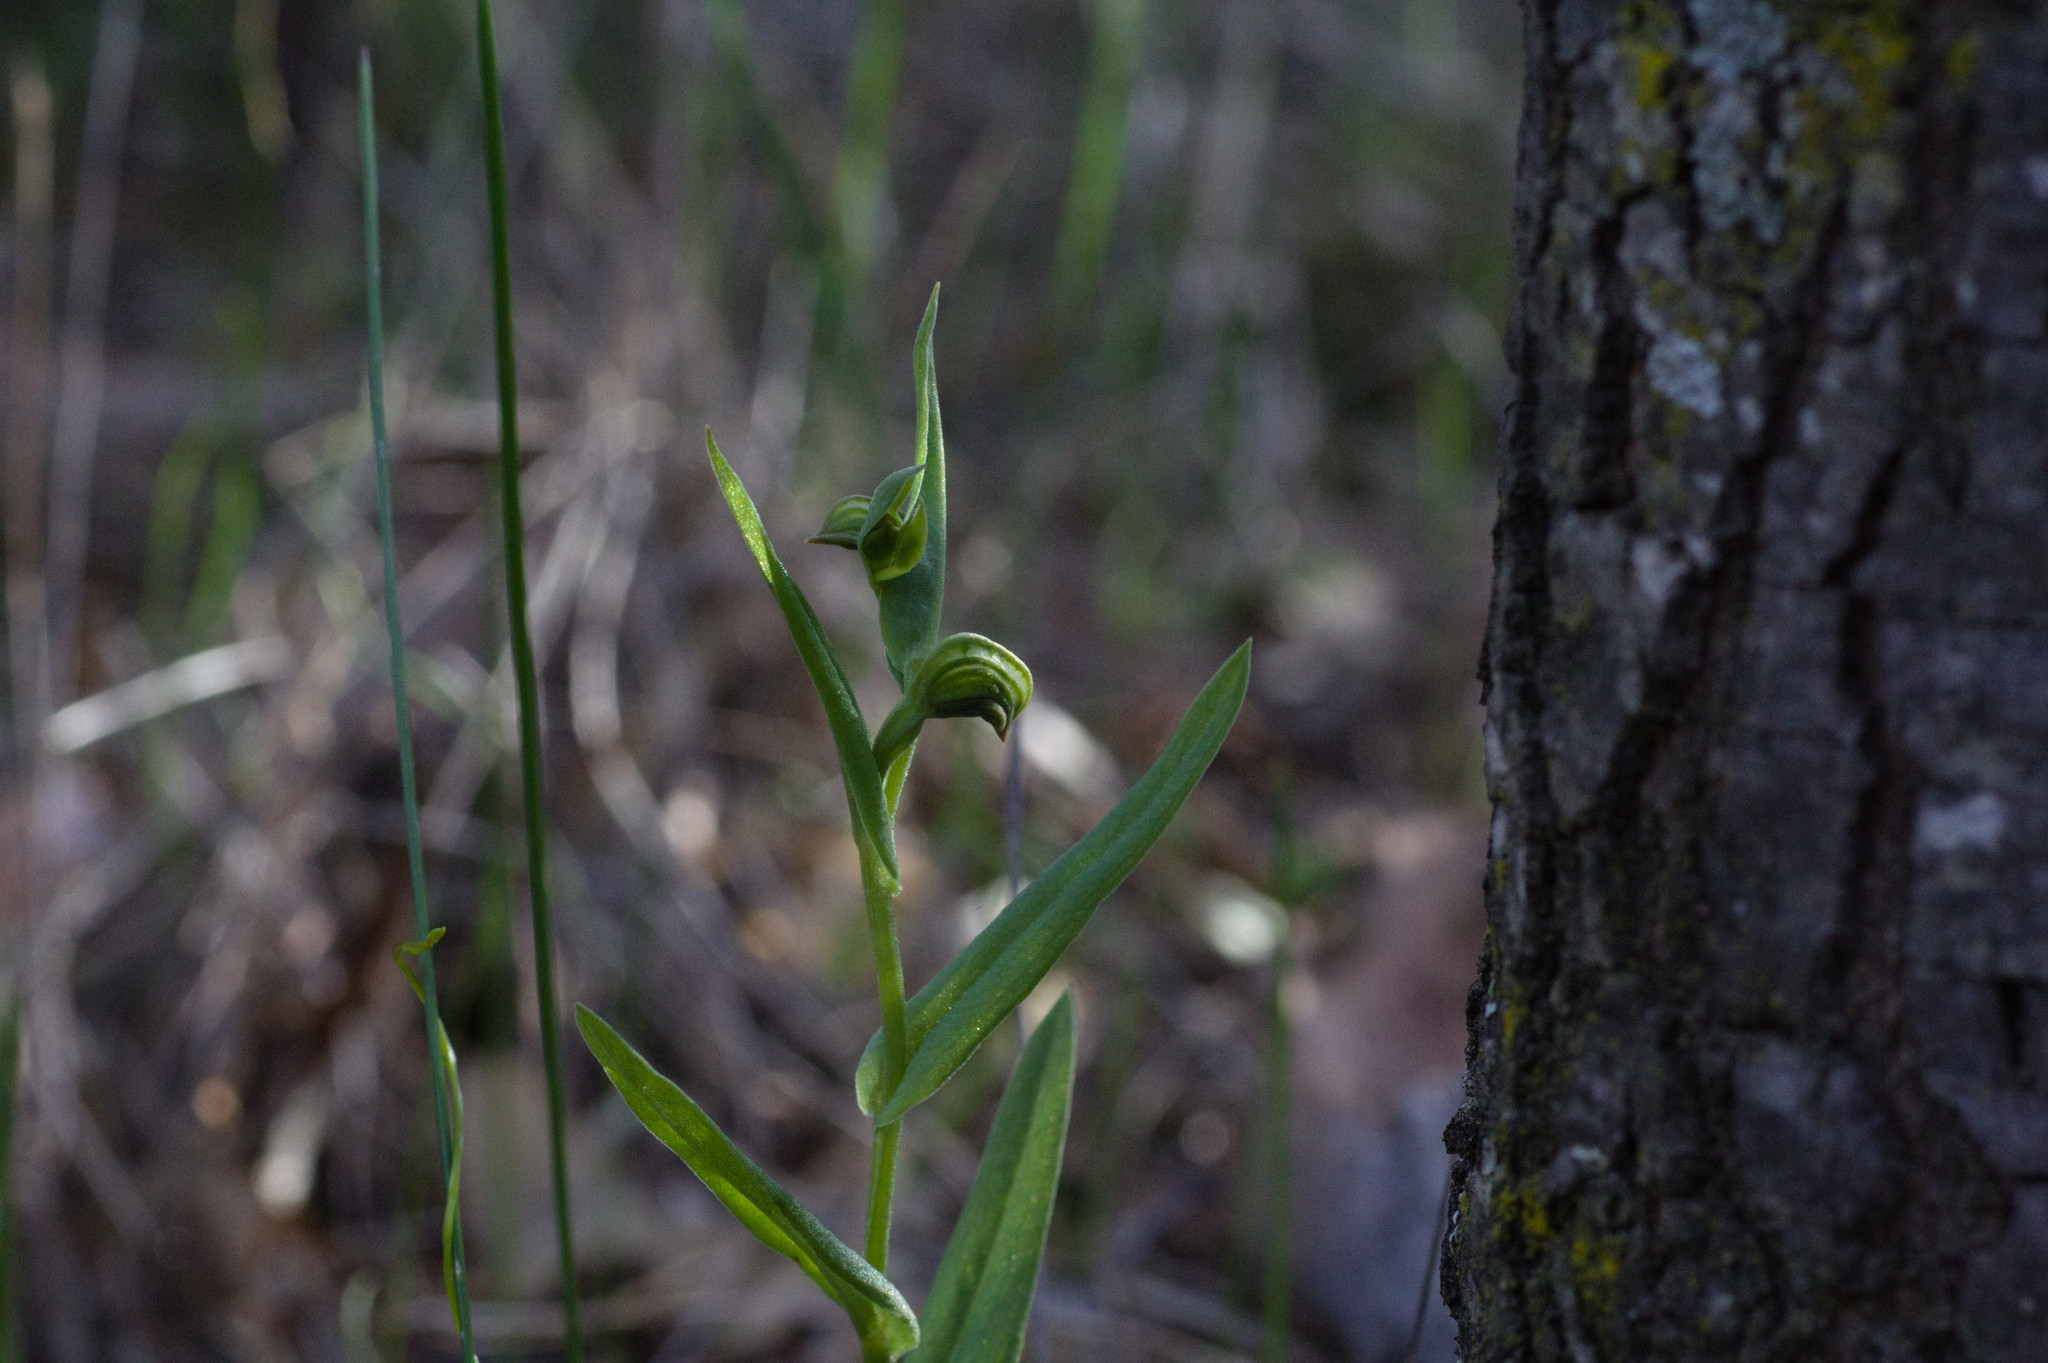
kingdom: Plantae
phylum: Tracheophyta
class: Liliopsida
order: Asparagales
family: Orchidaceae
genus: Pterostylis
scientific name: Pterostylis vittata
